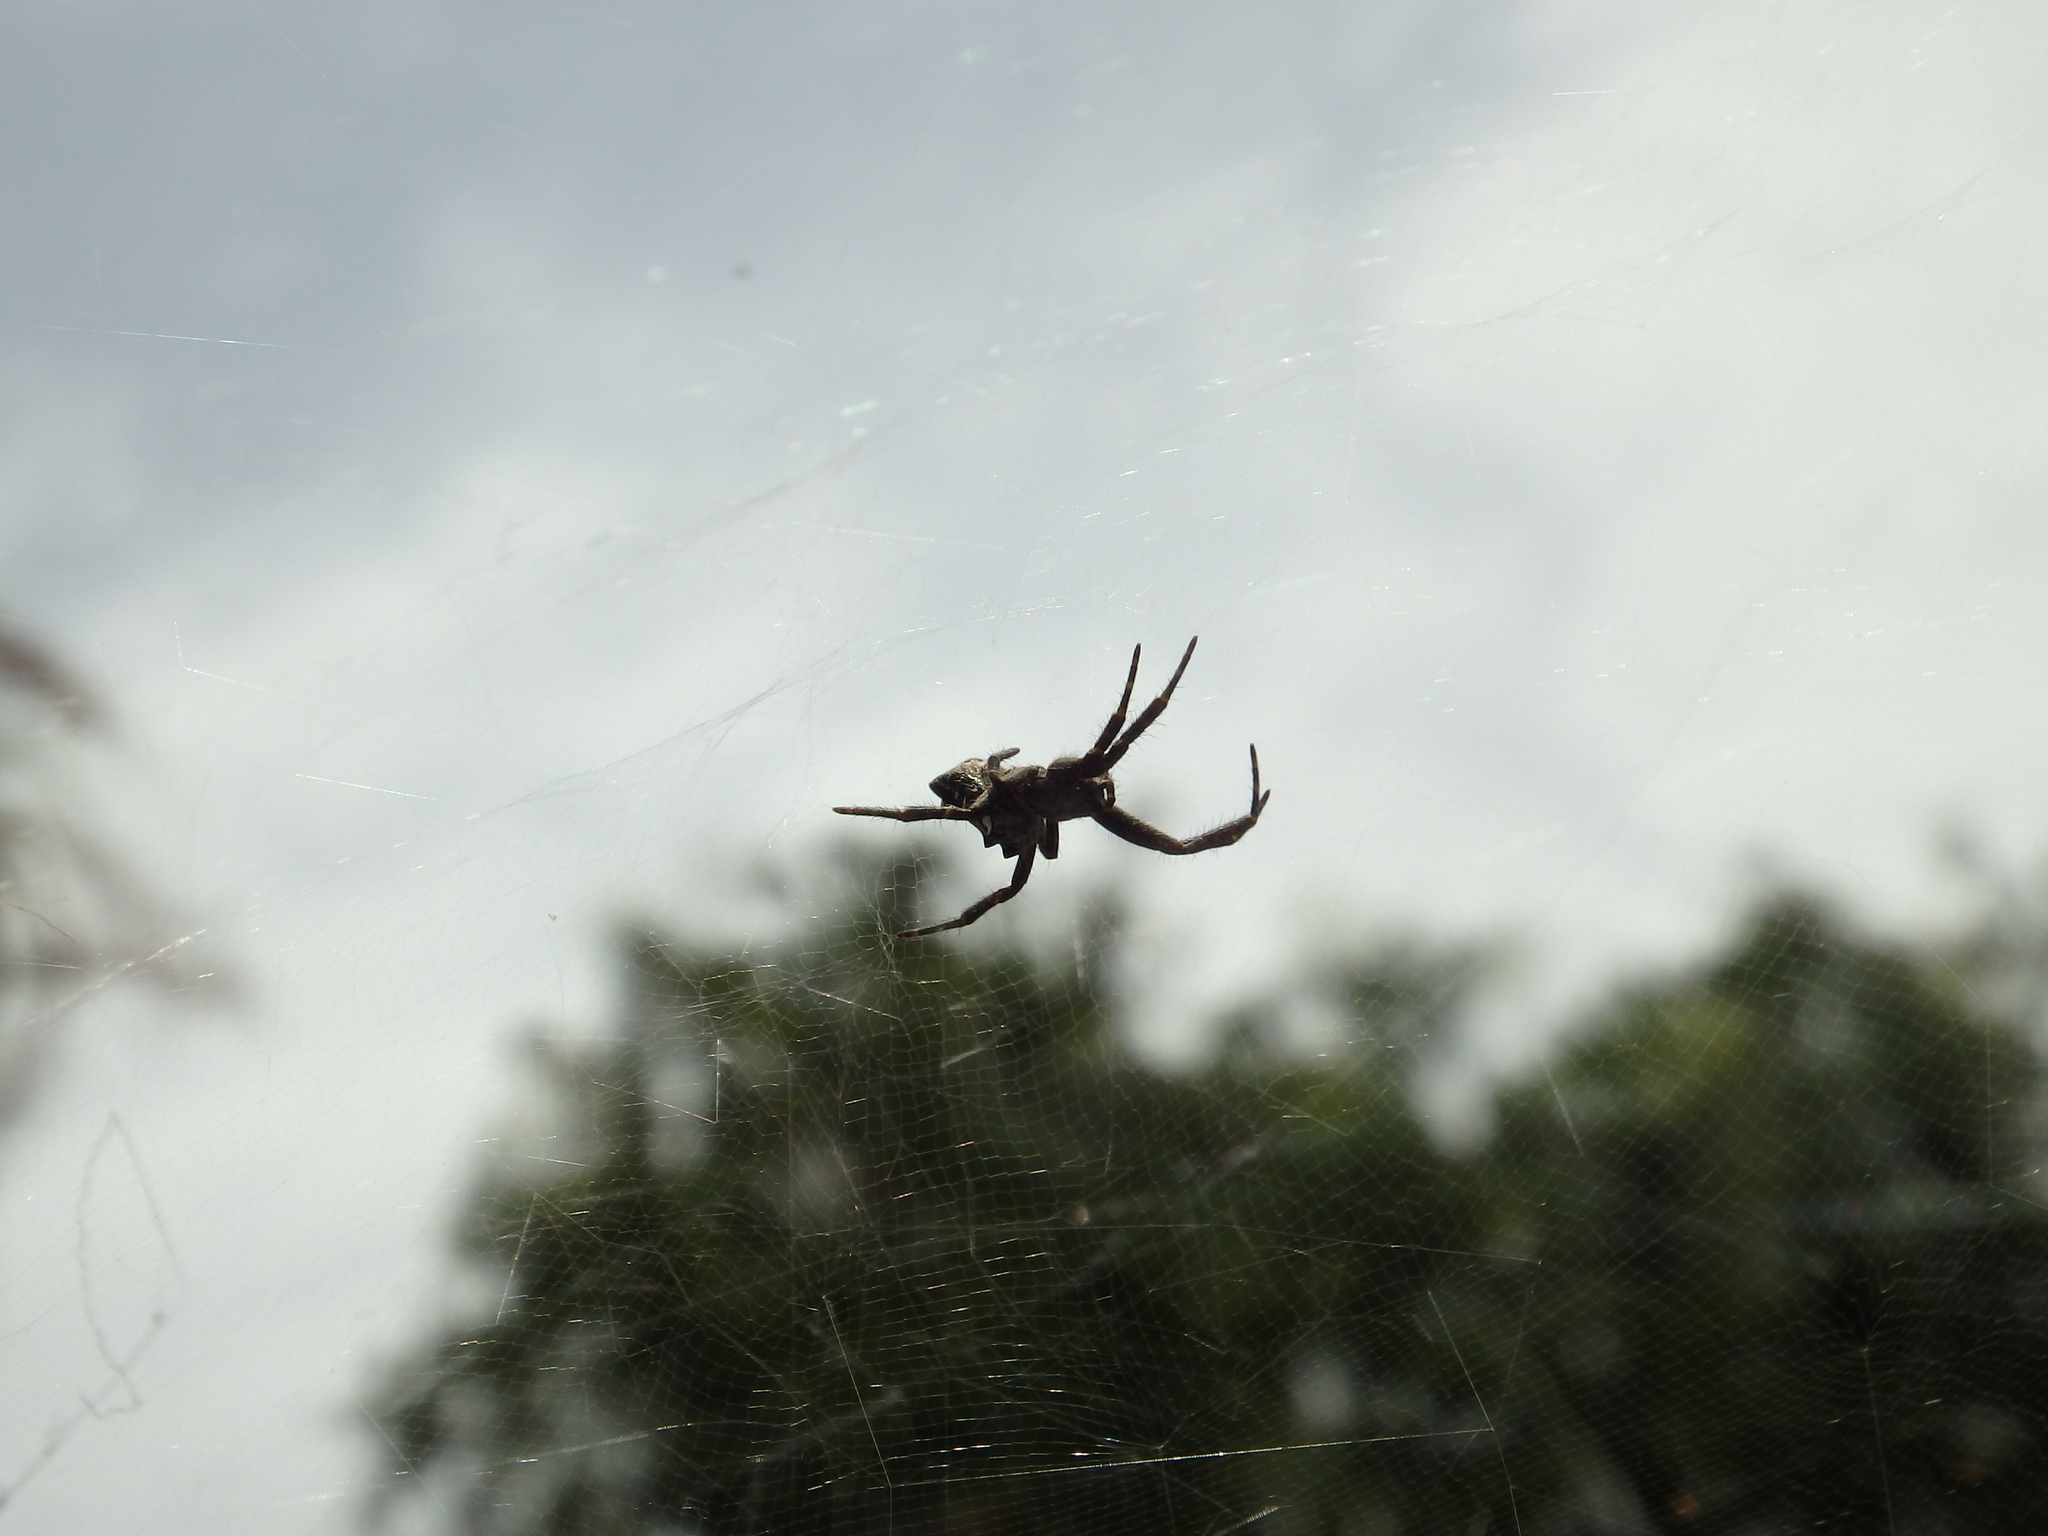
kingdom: Animalia
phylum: Arthropoda
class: Arachnida
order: Araneae
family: Araneidae
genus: Cyrtophora
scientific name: Cyrtophora citricola
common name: Orb weavers
